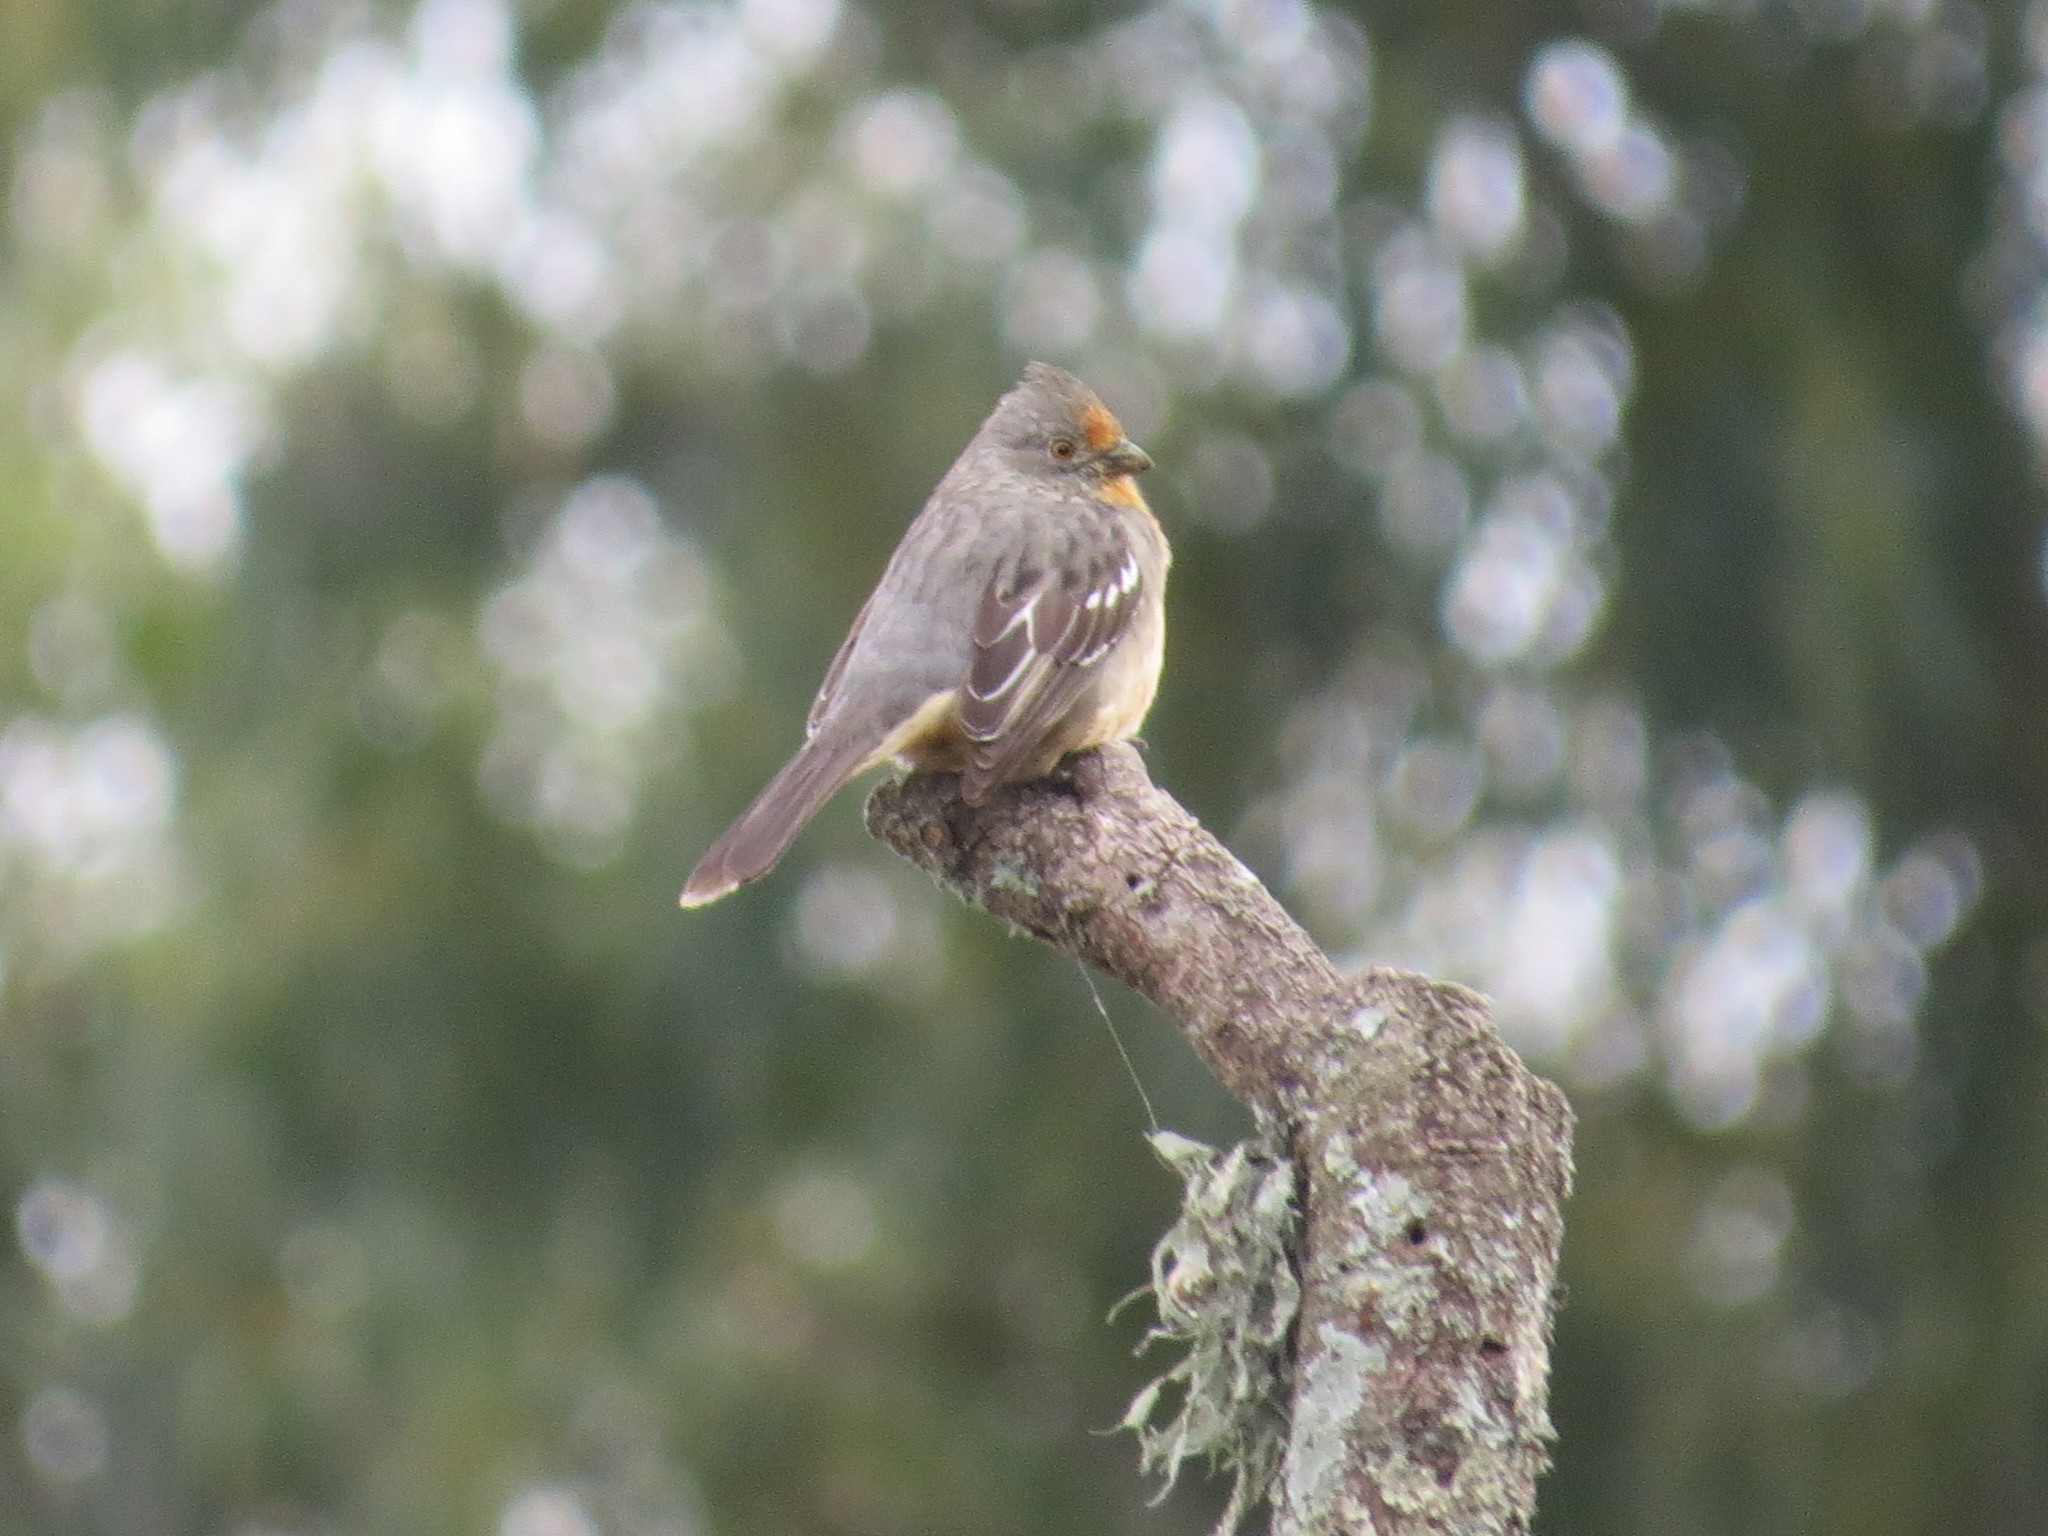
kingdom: Animalia
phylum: Chordata
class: Aves
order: Passeriformes
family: Cotingidae
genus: Phytotoma
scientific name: Phytotoma rutila
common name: White-tipped plantcutter
